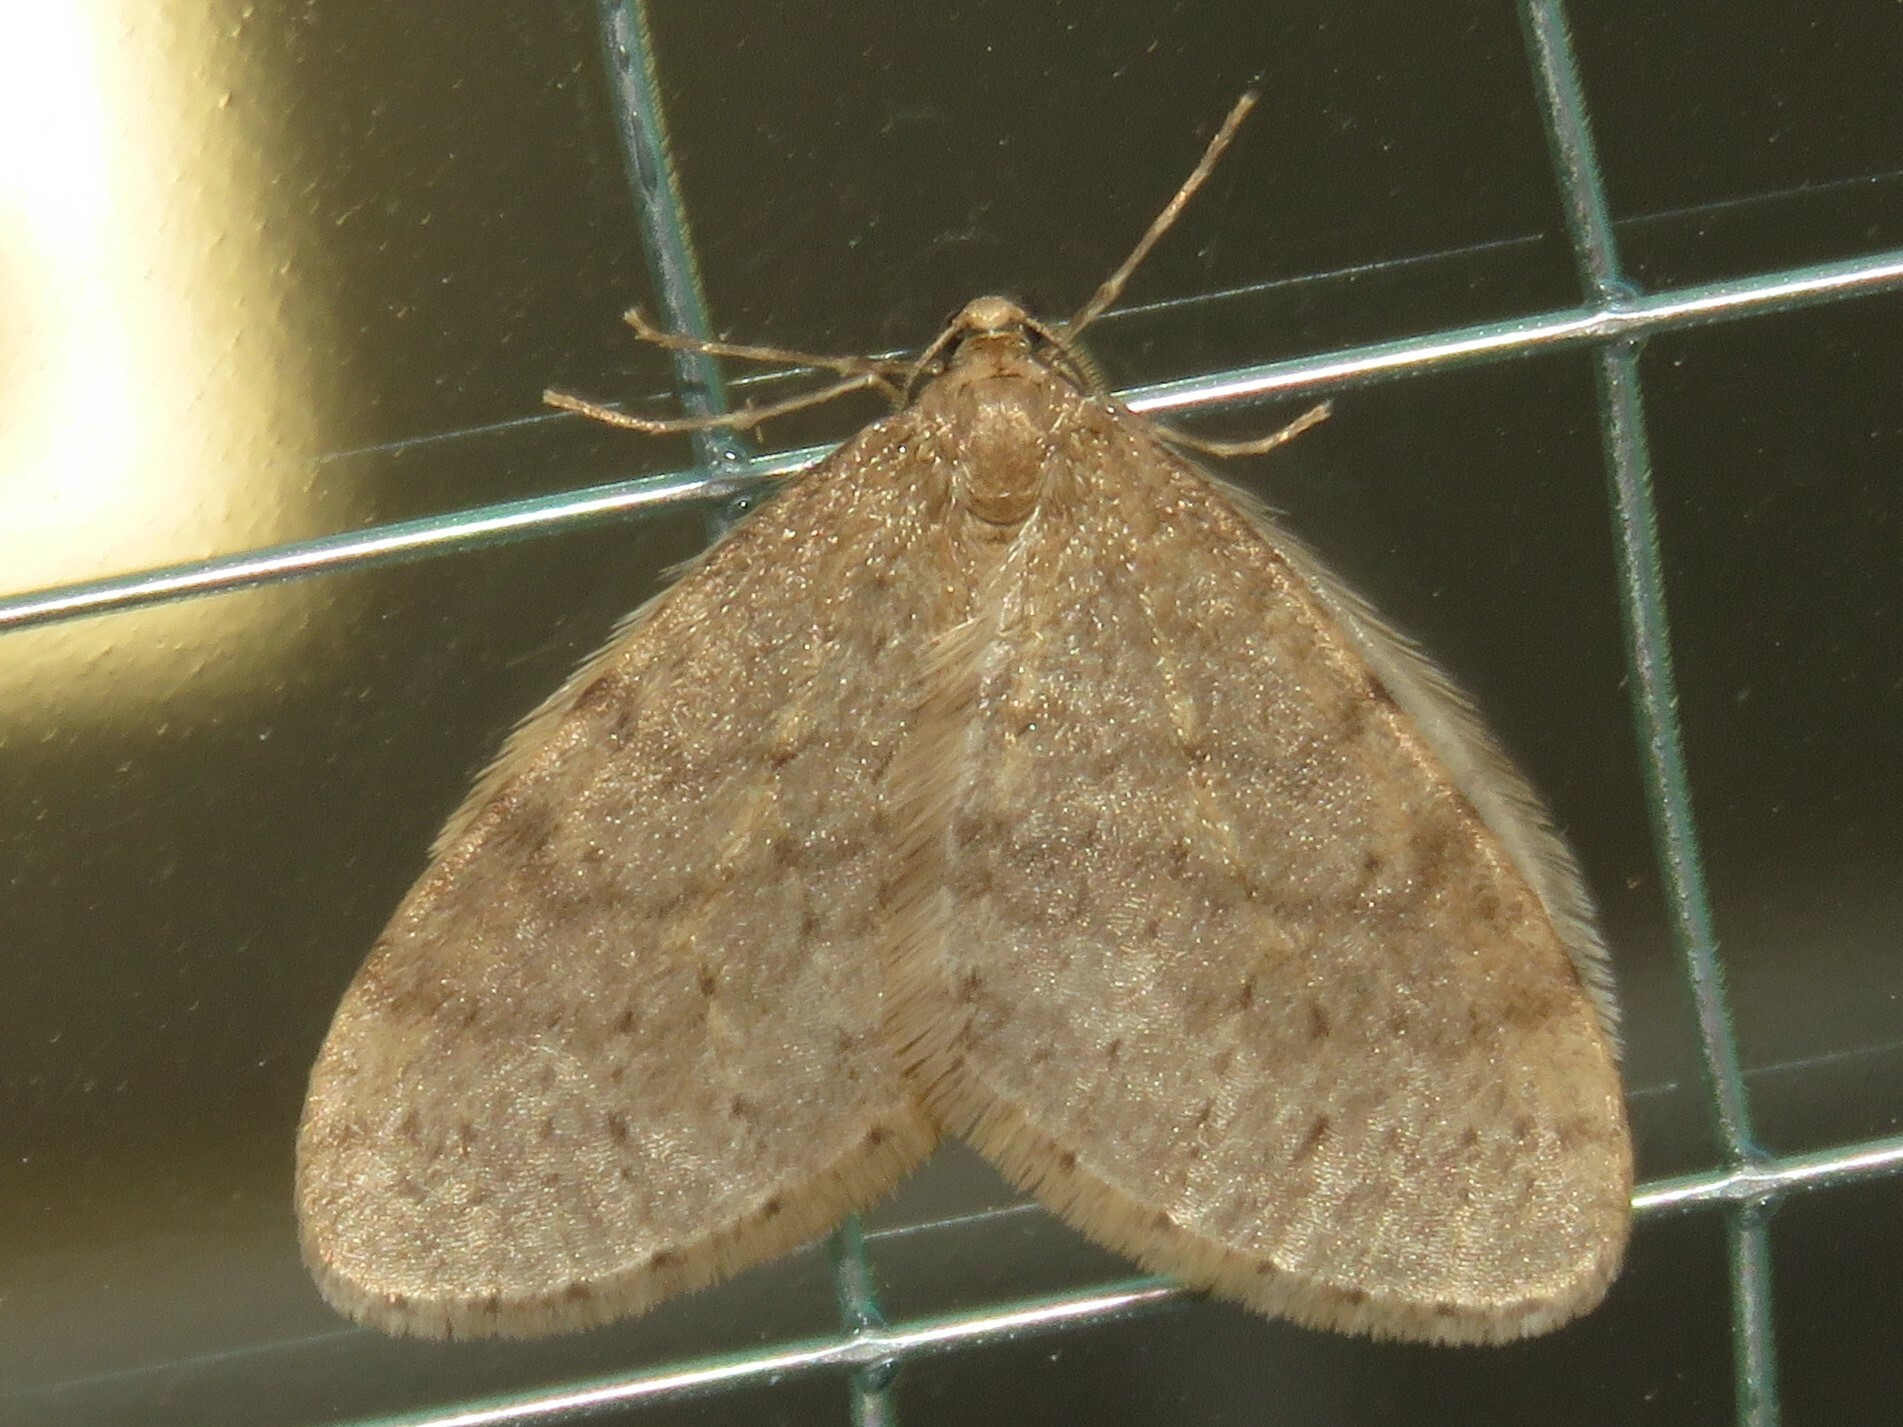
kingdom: Animalia
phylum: Arthropoda
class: Insecta
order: Lepidoptera
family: Geometridae
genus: Operophtera
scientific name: Operophtera bruceata
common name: Bruce spanworm
